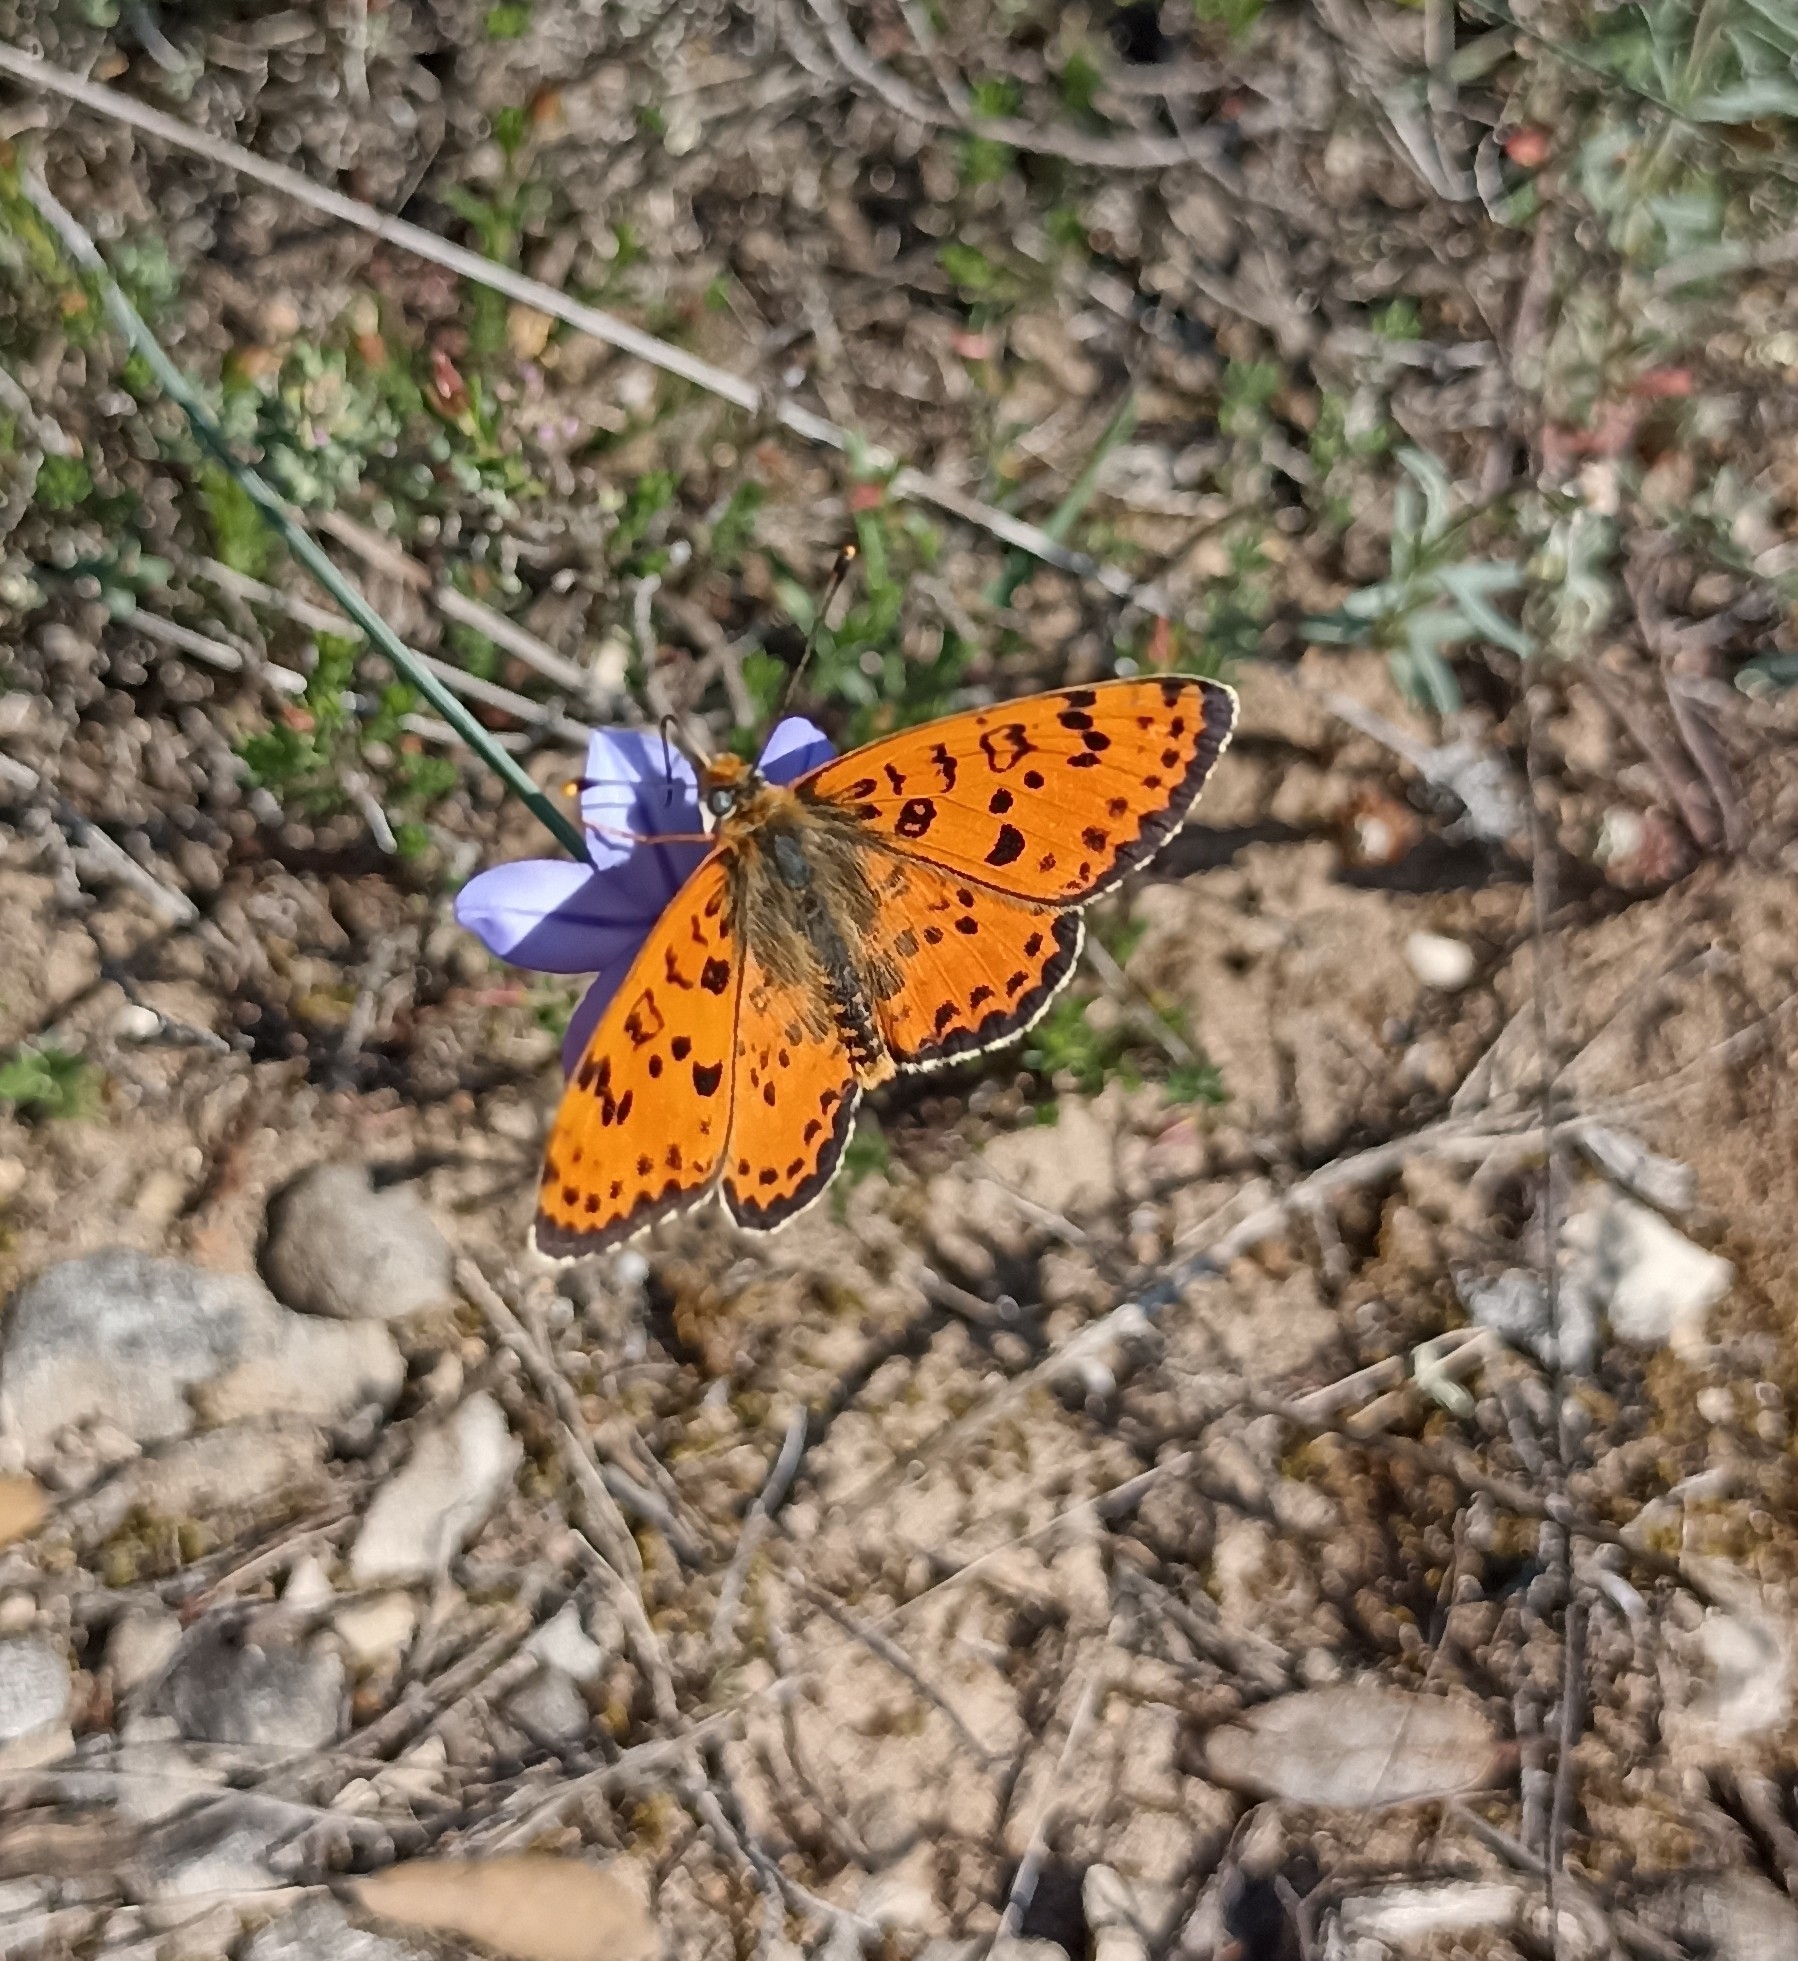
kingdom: Animalia
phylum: Arthropoda
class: Insecta
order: Lepidoptera
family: Nymphalidae
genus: Melitaea
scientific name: Melitaea didyma
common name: Spotted fritillary
